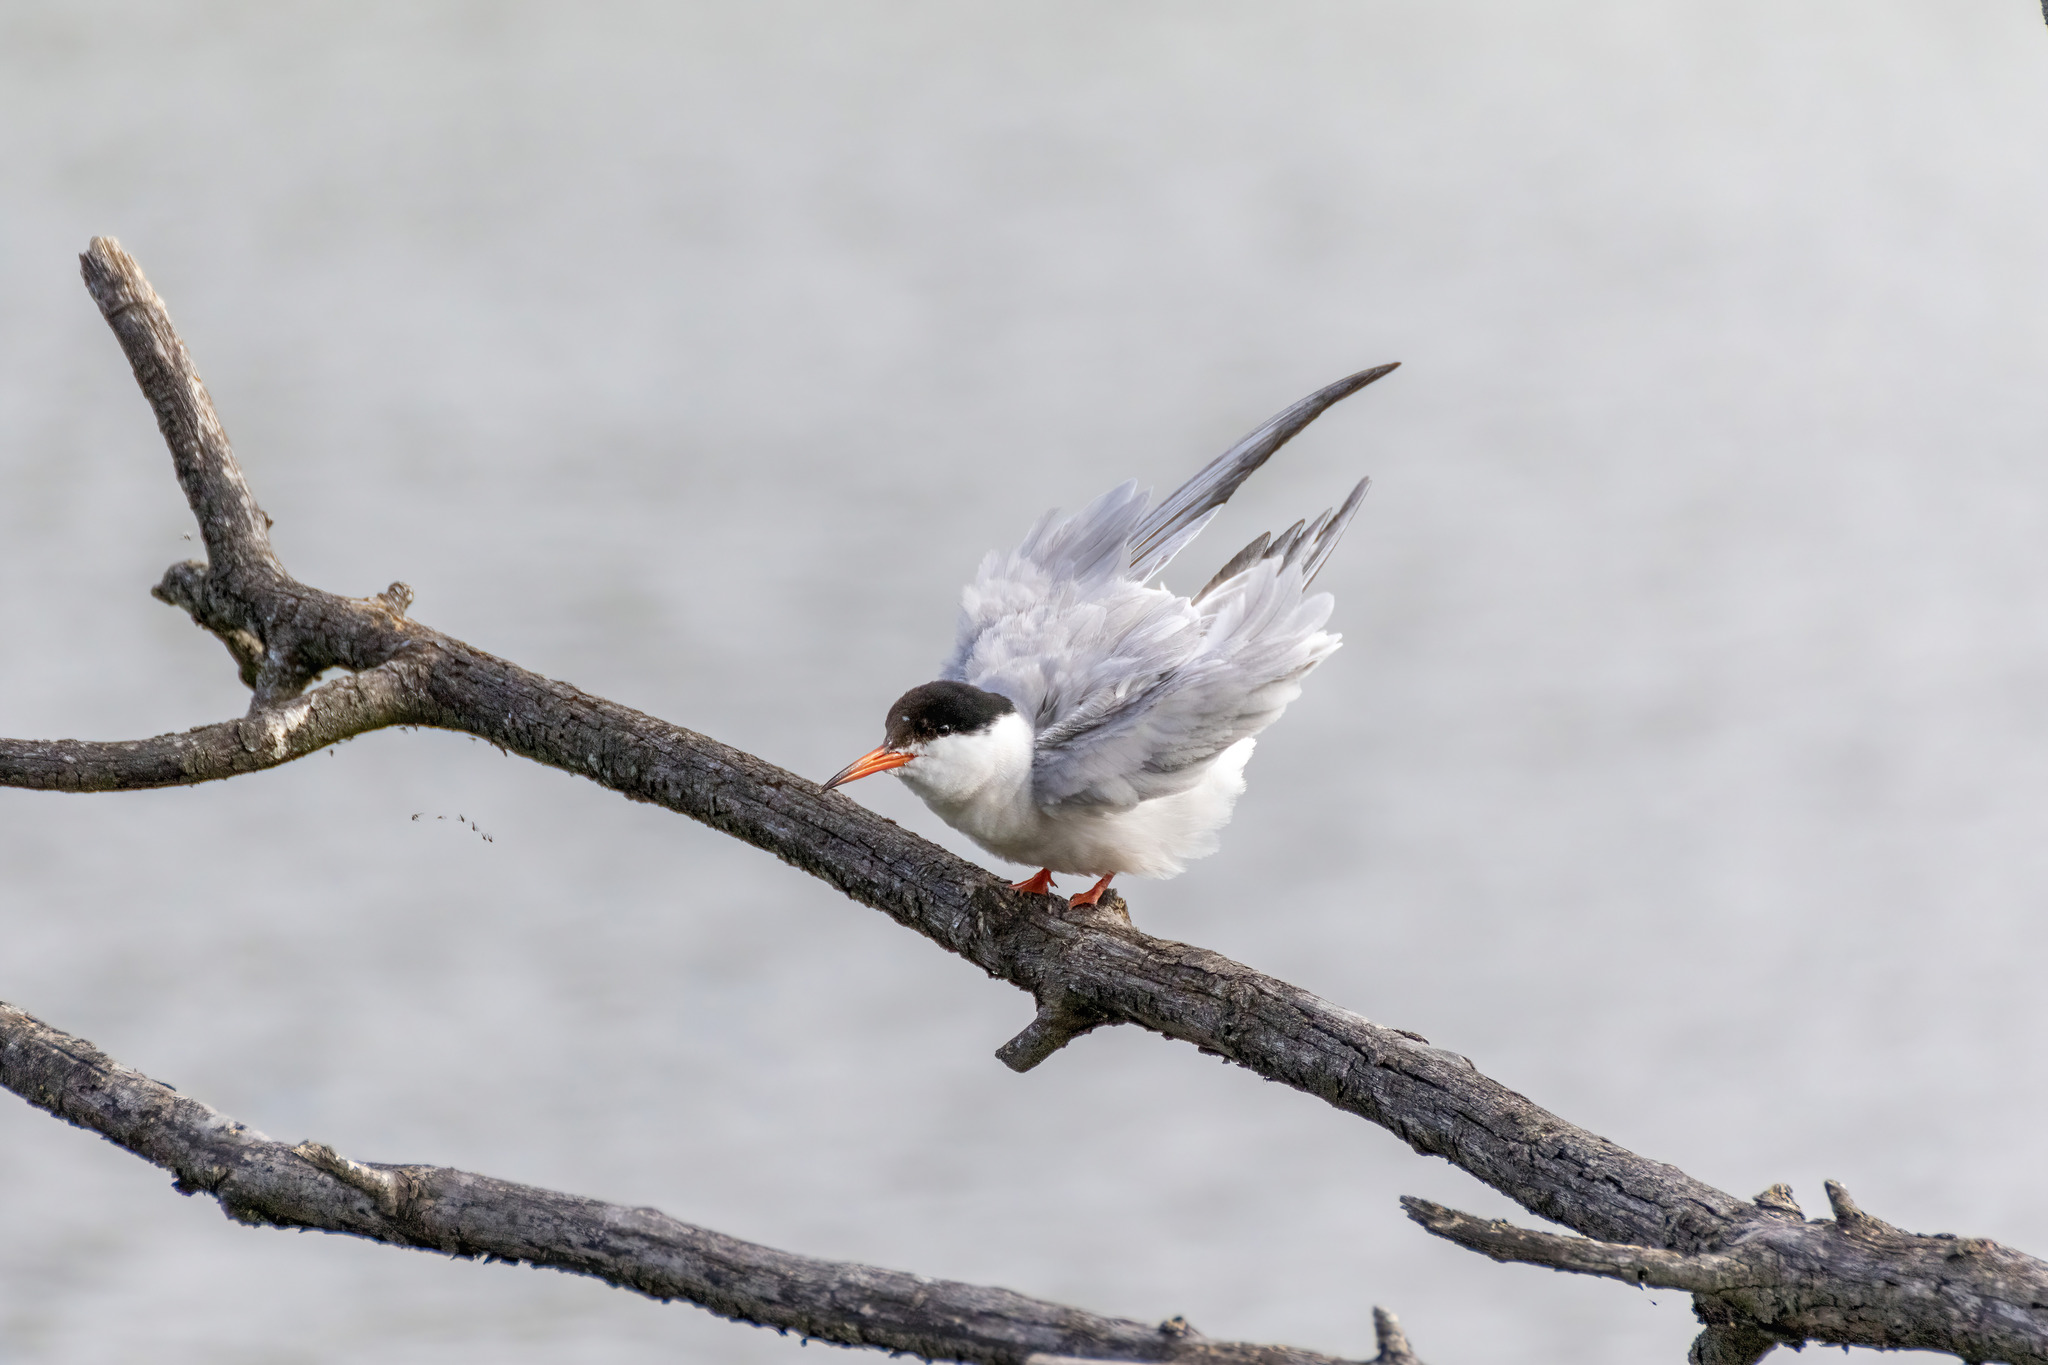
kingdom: Animalia
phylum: Chordata
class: Aves
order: Charadriiformes
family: Laridae
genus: Sterna
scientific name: Sterna hirundo
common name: Common tern
